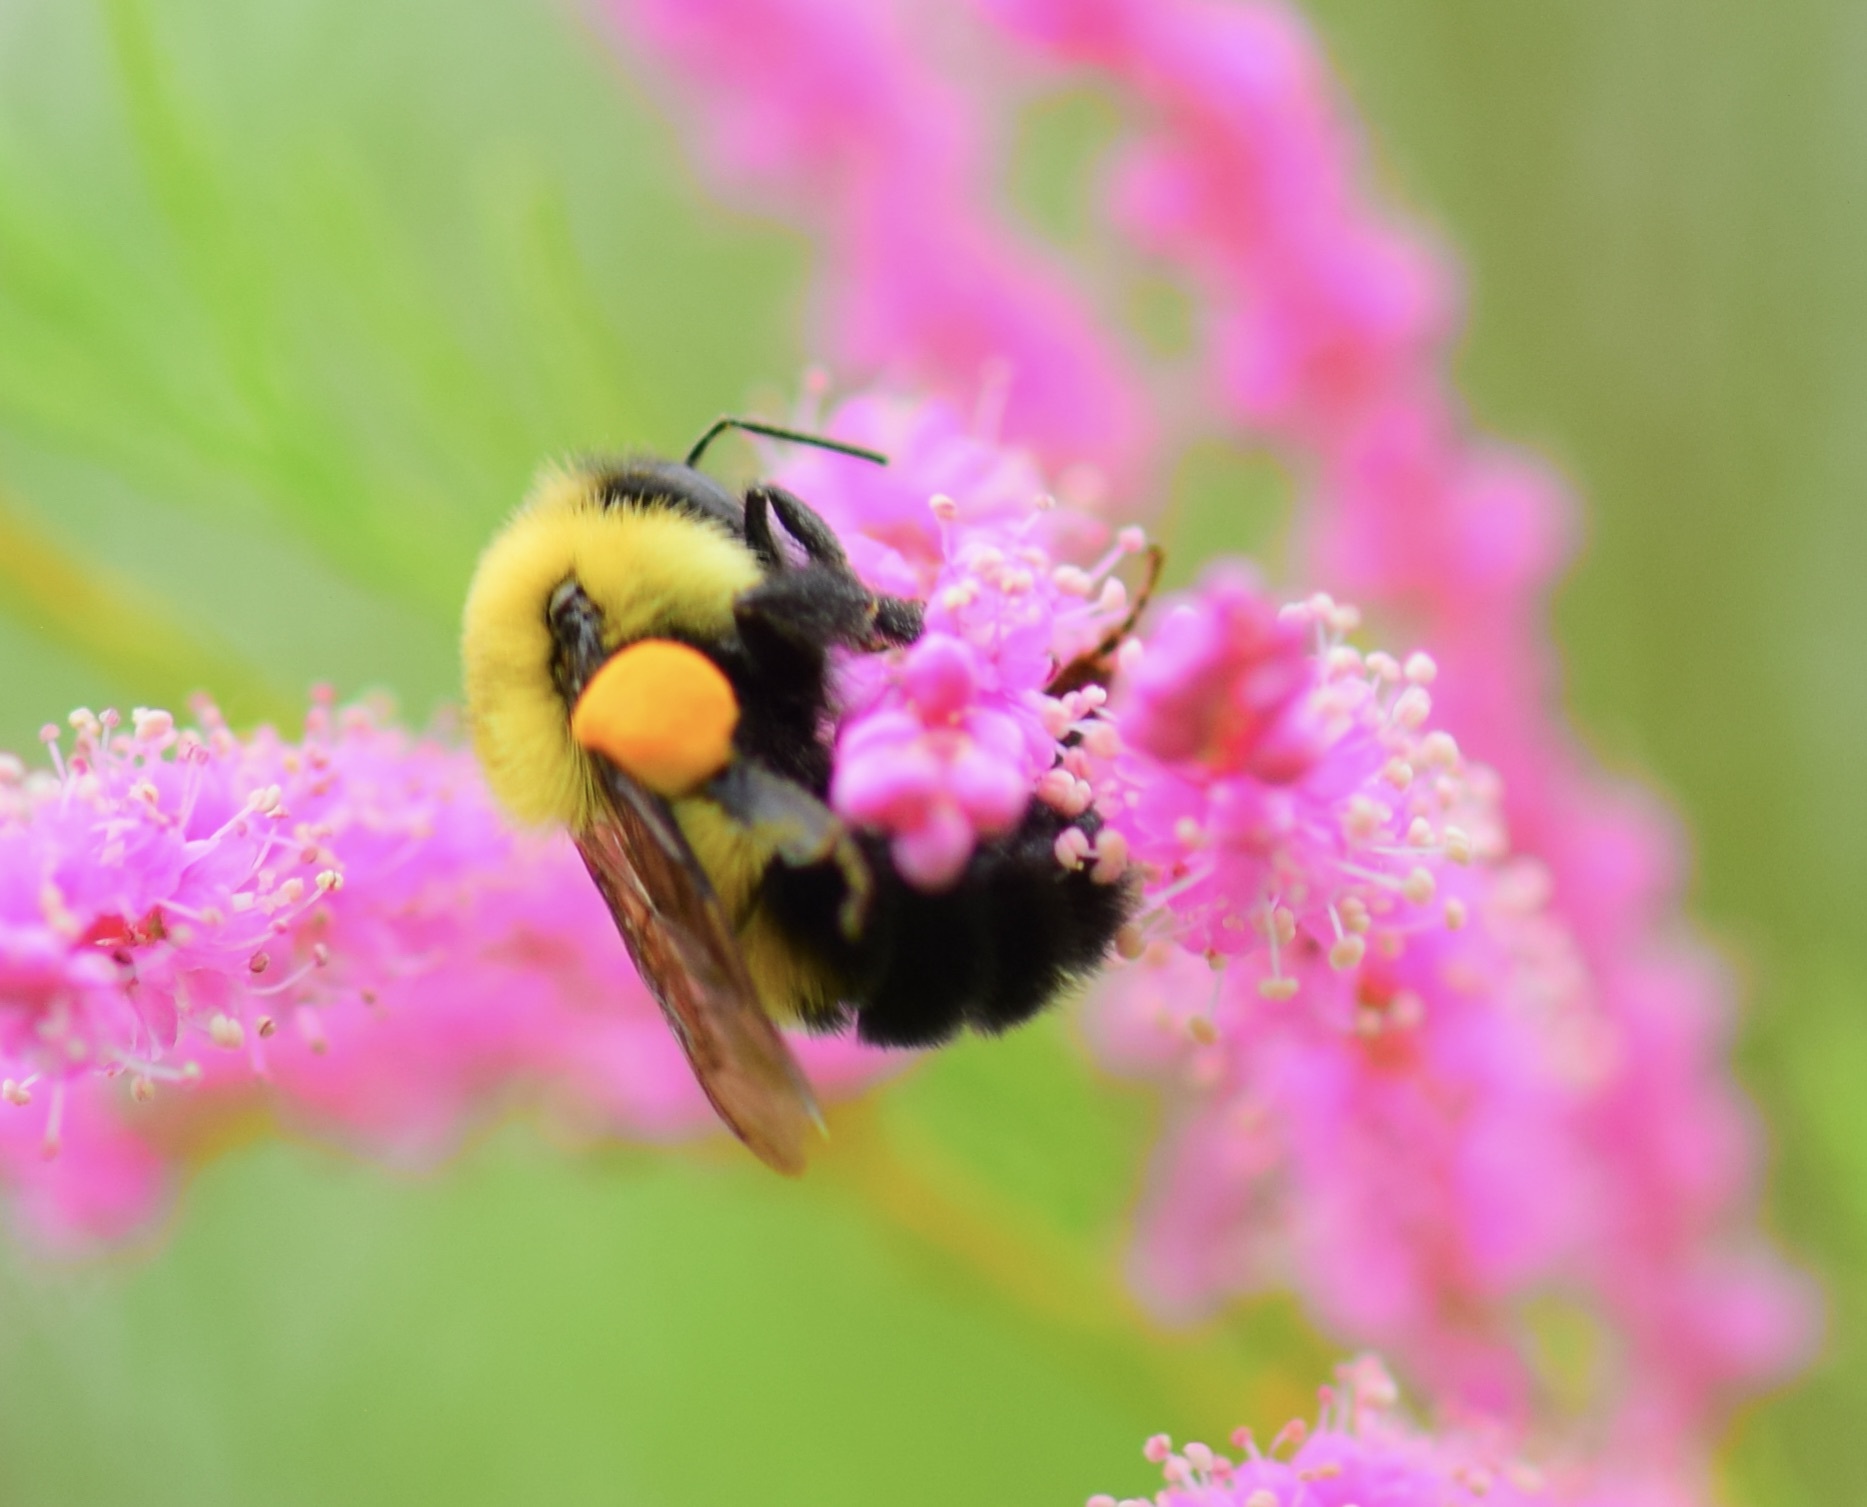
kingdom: Animalia
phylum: Arthropoda
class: Insecta
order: Hymenoptera
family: Apidae
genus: Bombus
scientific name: Bombus bimaculatus
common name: Two-spotted bumble bee
